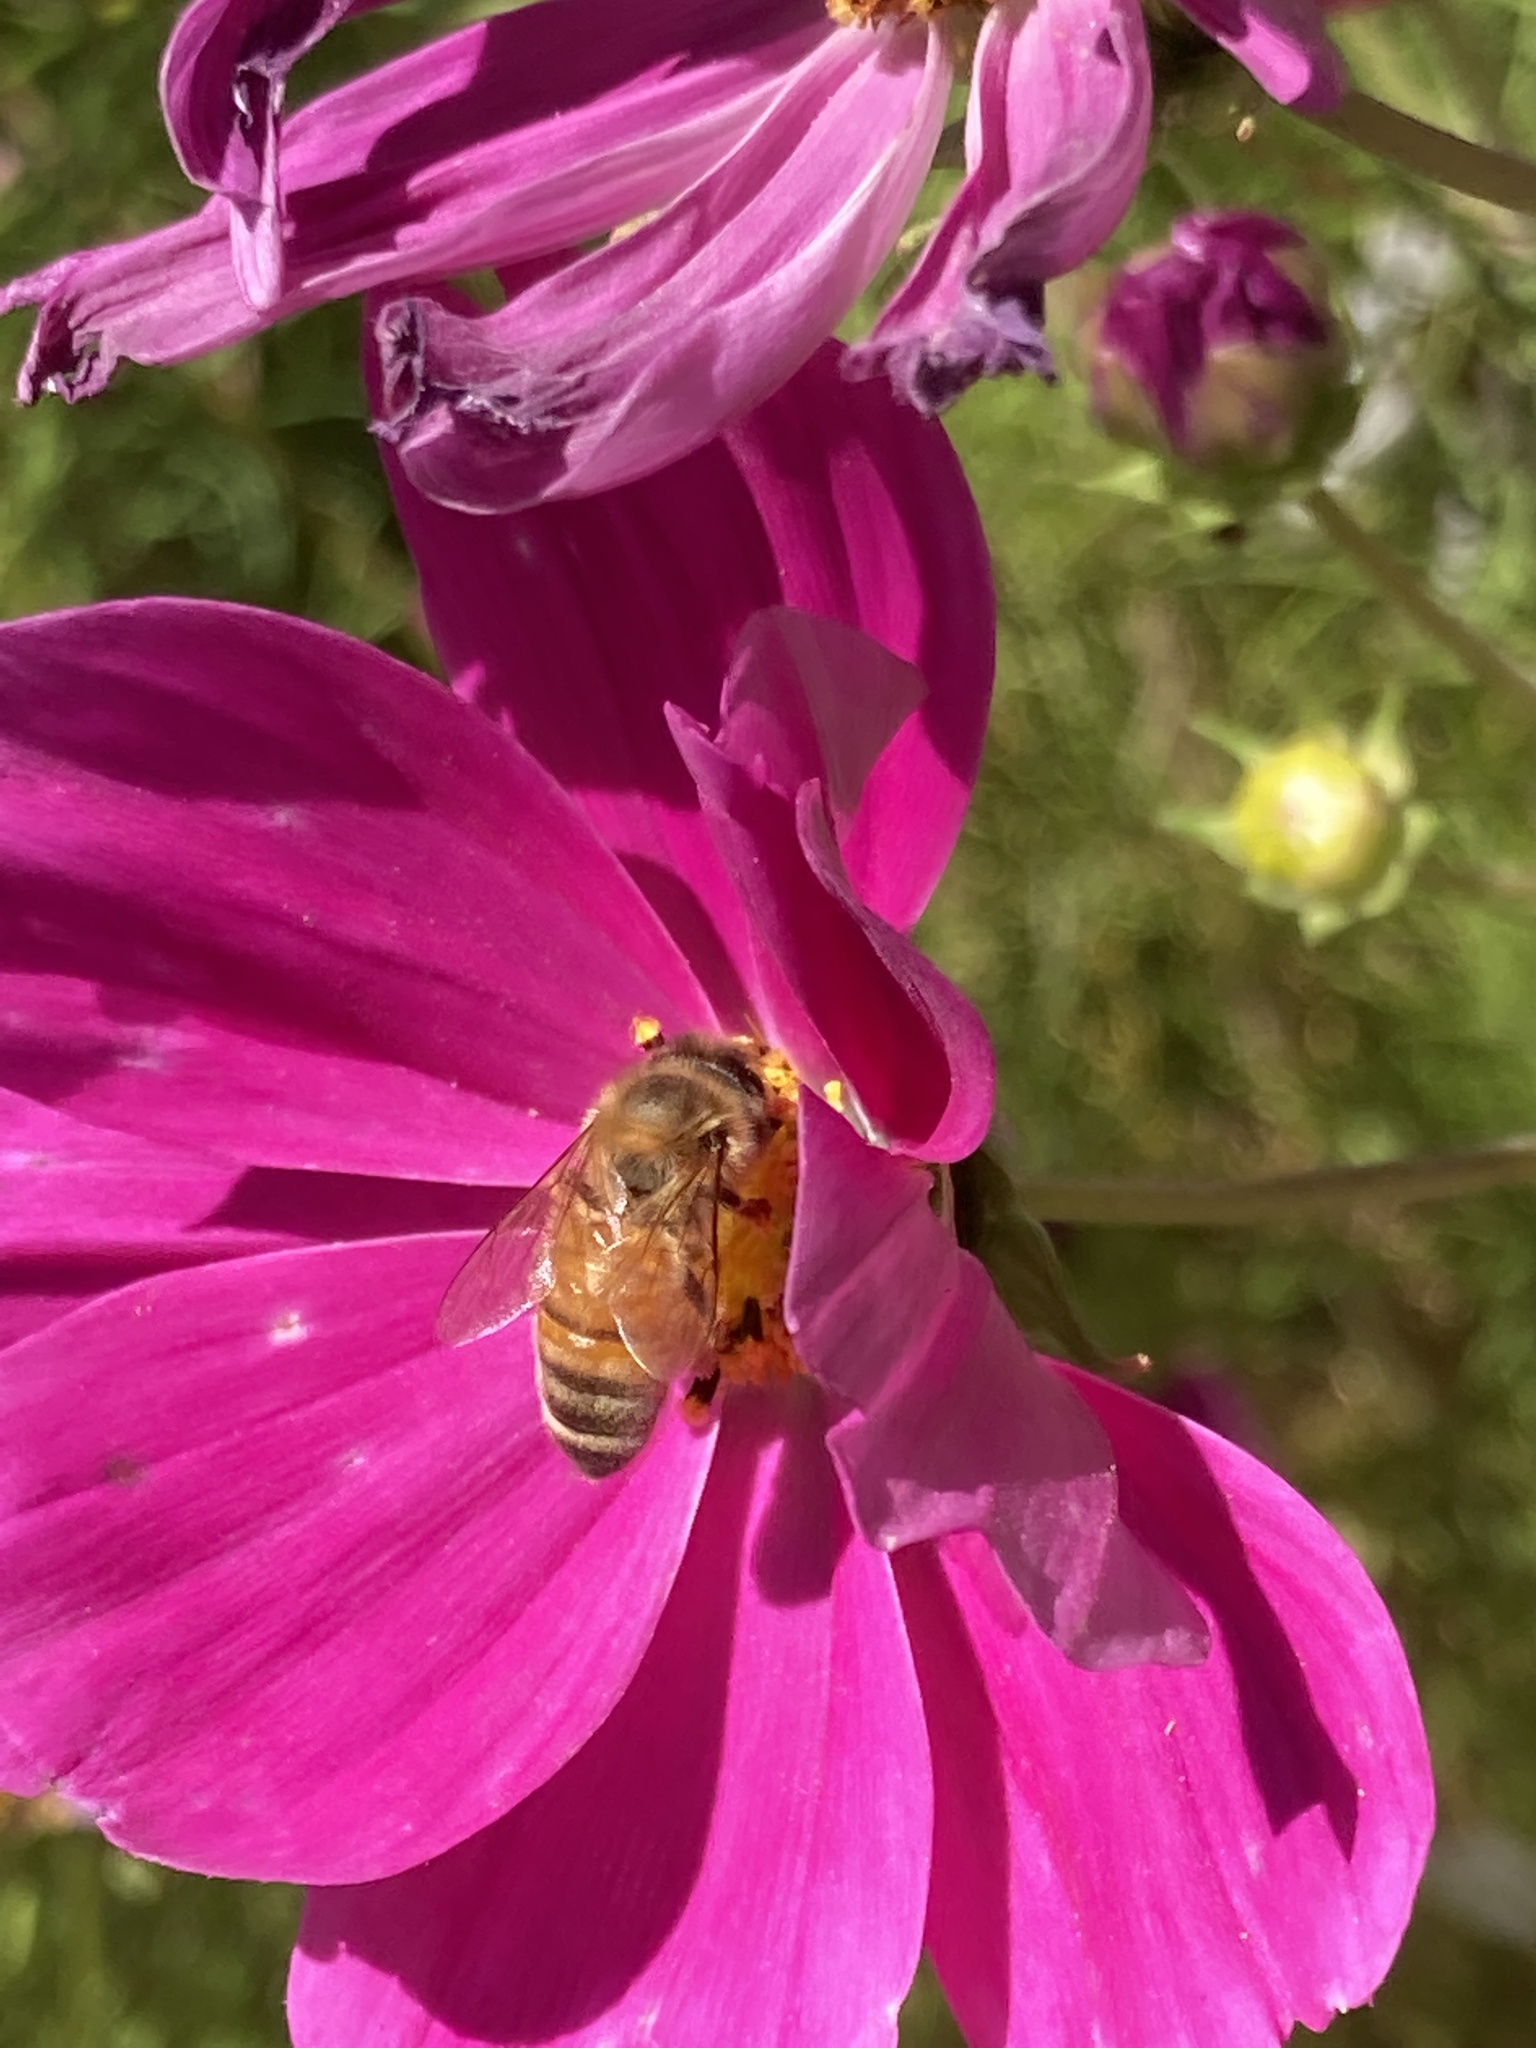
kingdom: Animalia
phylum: Arthropoda
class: Insecta
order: Hymenoptera
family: Apidae
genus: Apis
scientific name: Apis mellifera
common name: Honey bee
